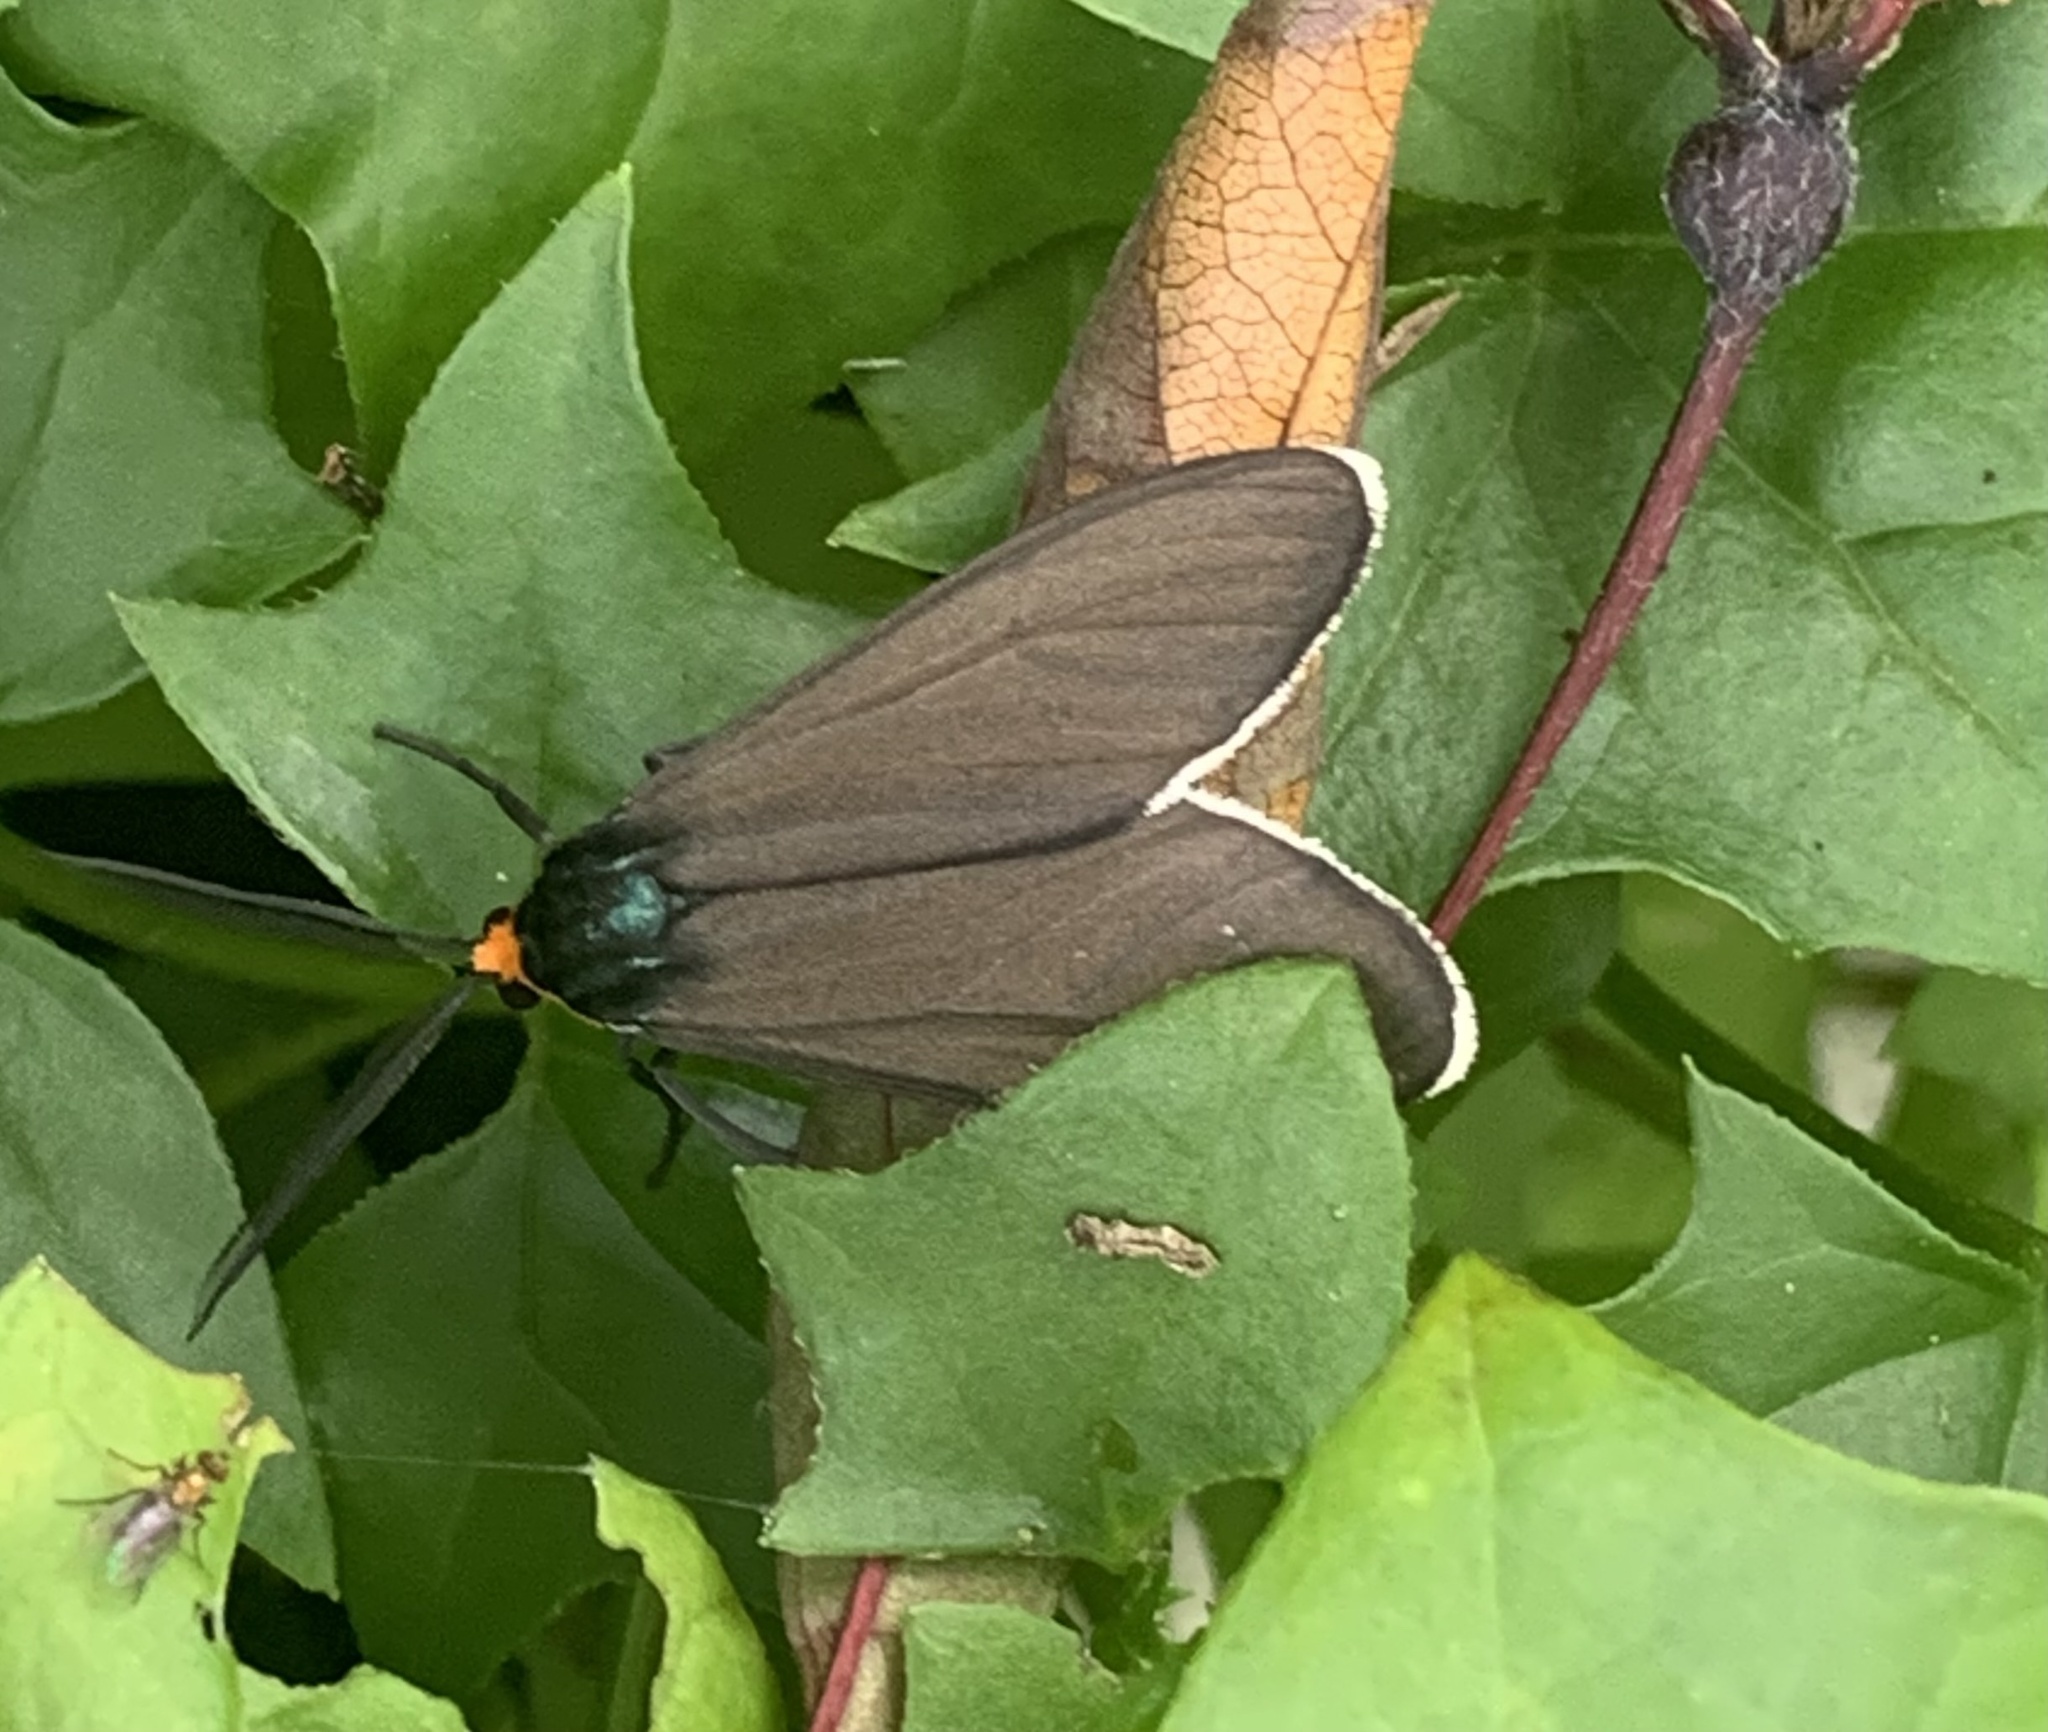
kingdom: Animalia
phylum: Arthropoda
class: Insecta
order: Lepidoptera
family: Erebidae
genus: Ctenucha
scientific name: Ctenucha virginica
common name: Virginia ctenucha moth
